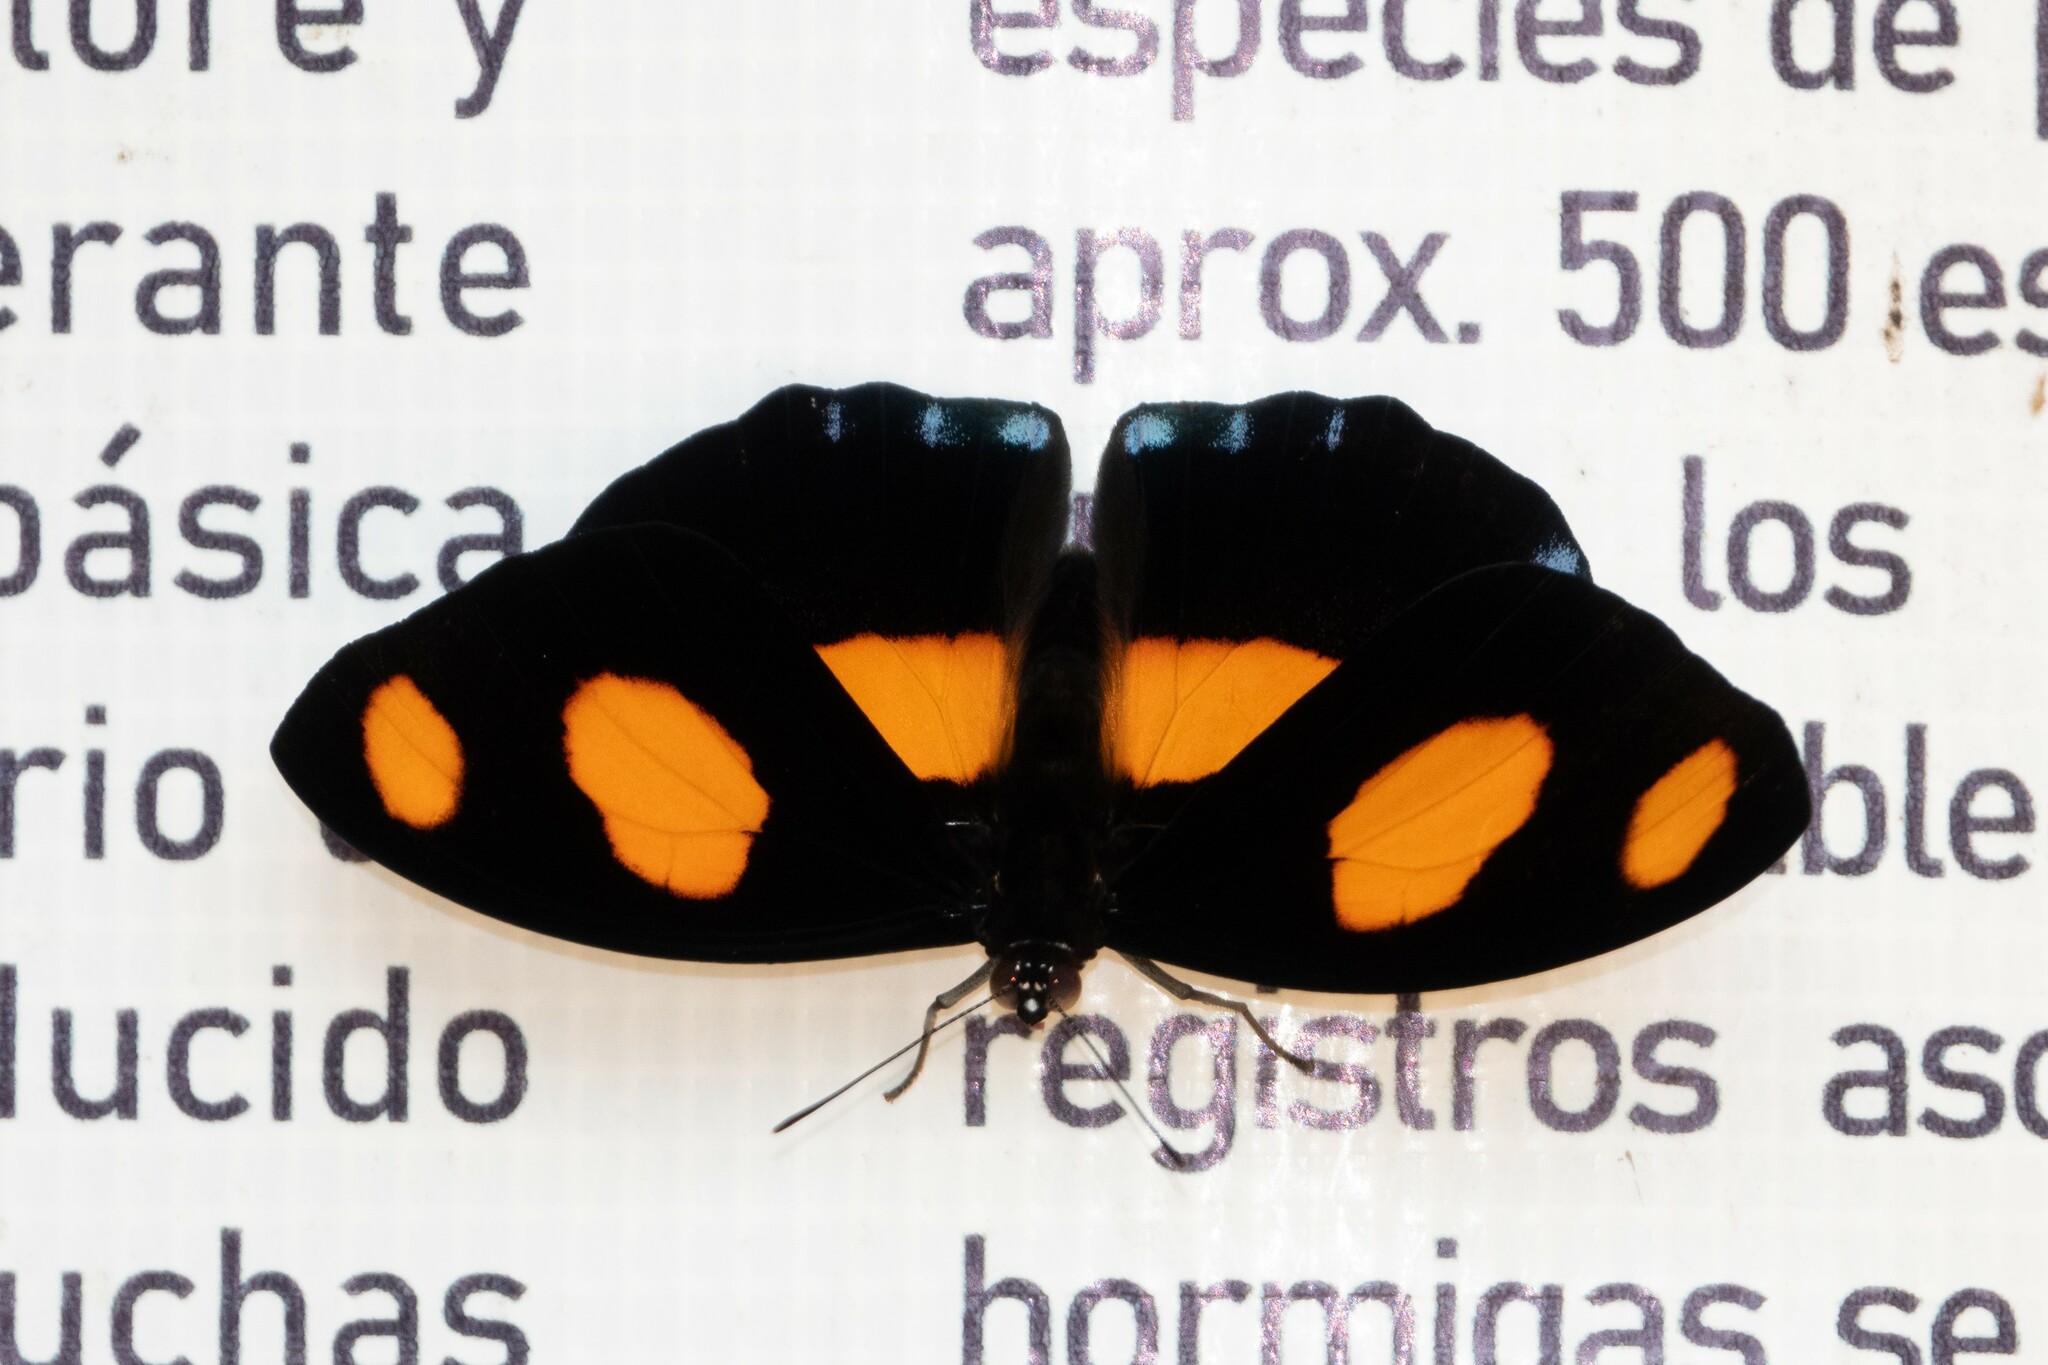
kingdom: Animalia
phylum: Arthropoda
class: Insecta
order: Lepidoptera
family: Nymphalidae
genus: Catonephele
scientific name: Catonephele numilia
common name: Blue-frosted banner
